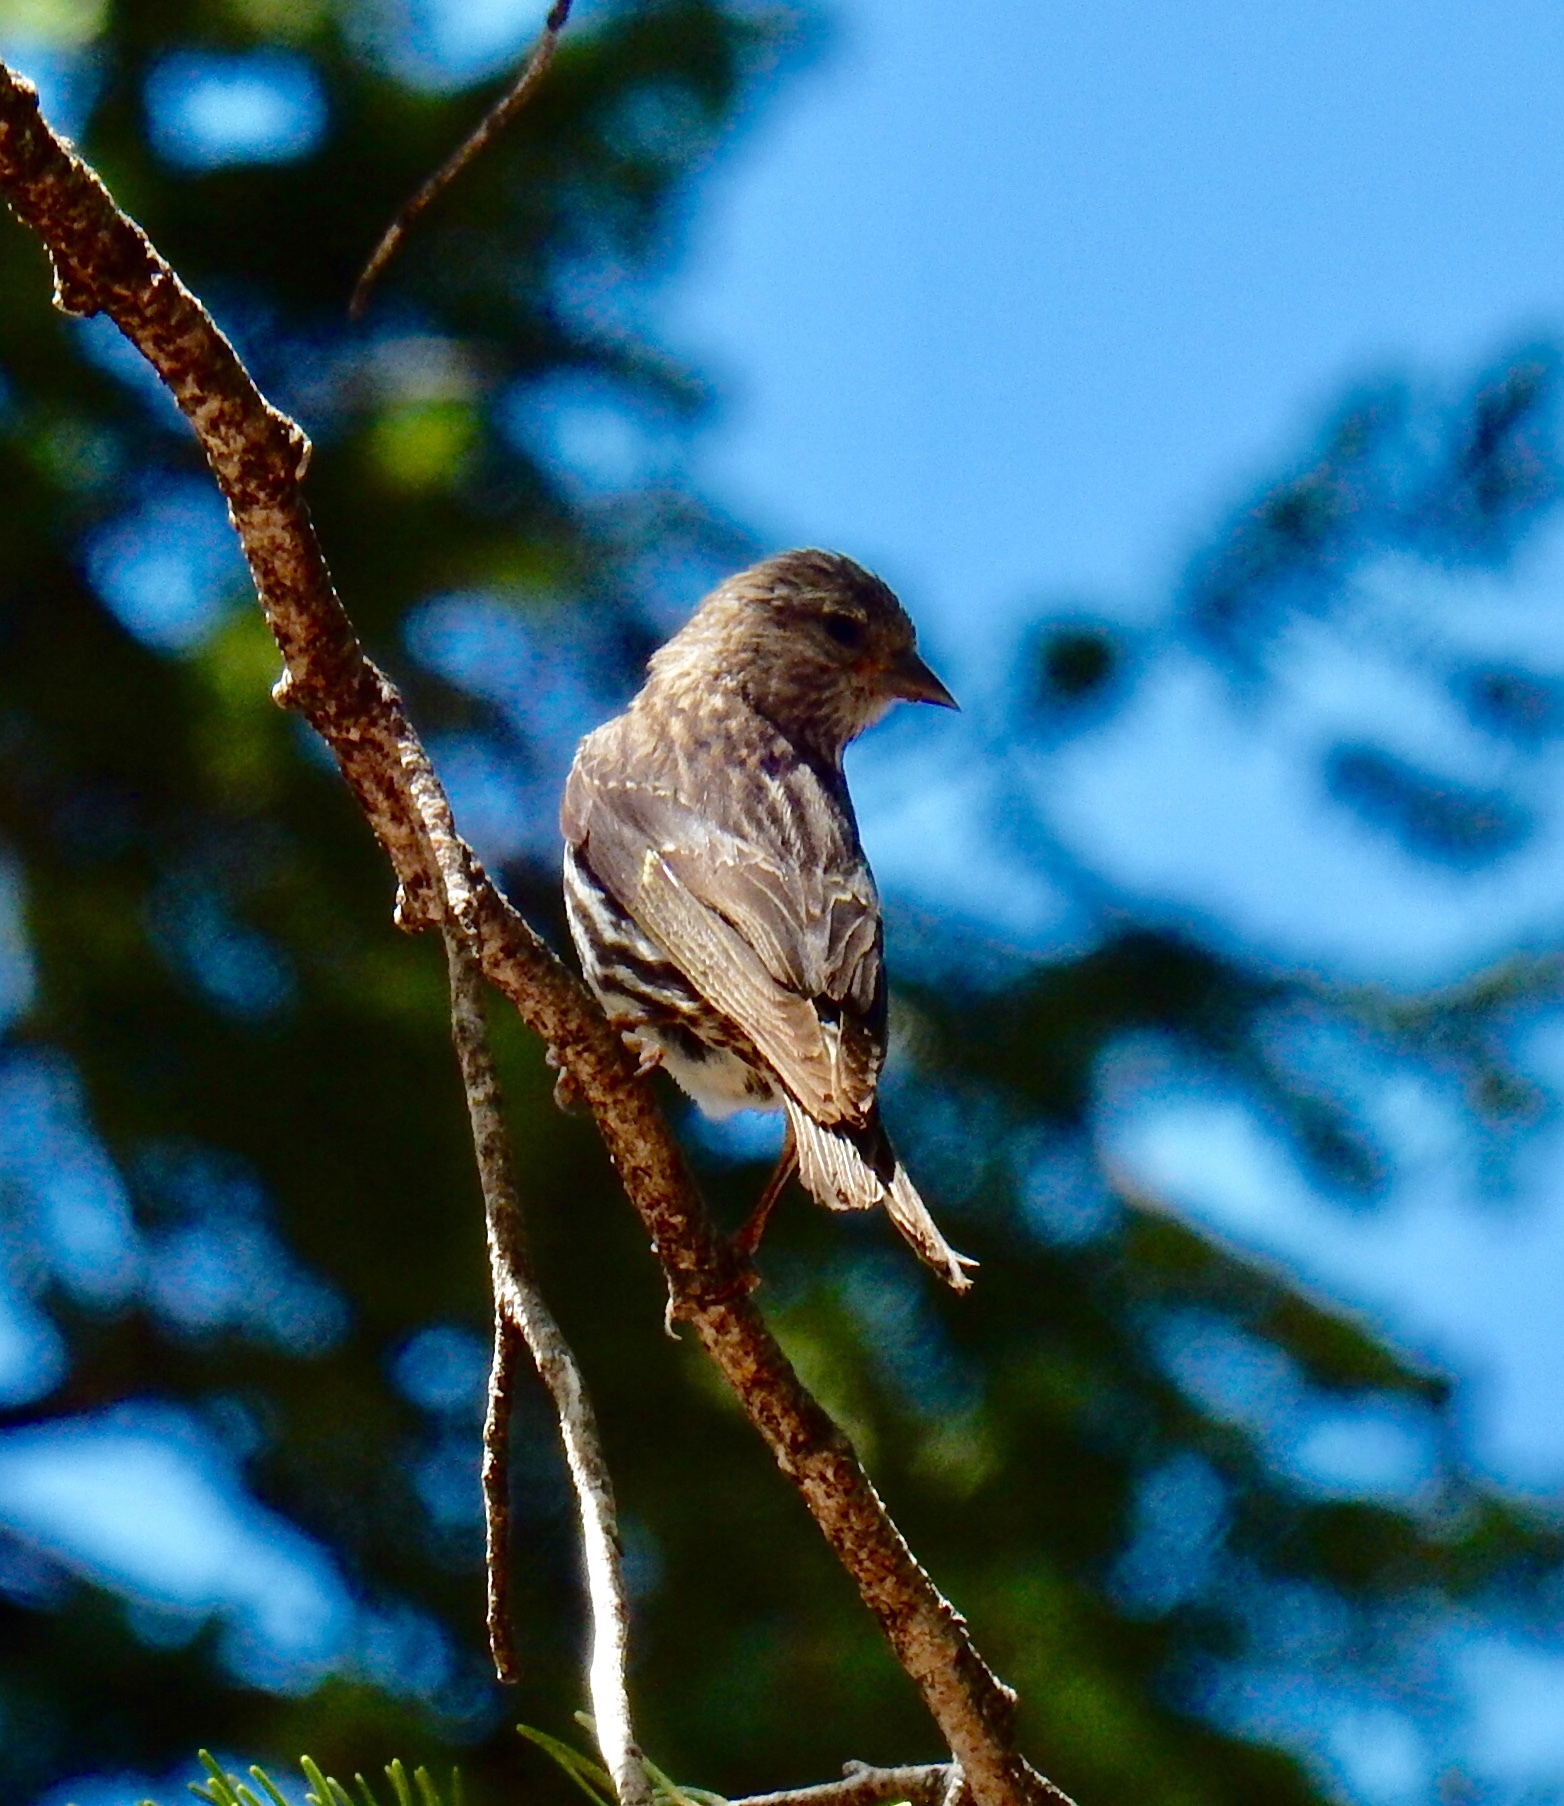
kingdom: Animalia
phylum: Chordata
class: Aves
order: Passeriformes
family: Fringillidae
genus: Spinus
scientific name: Spinus pinus
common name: Pine siskin
